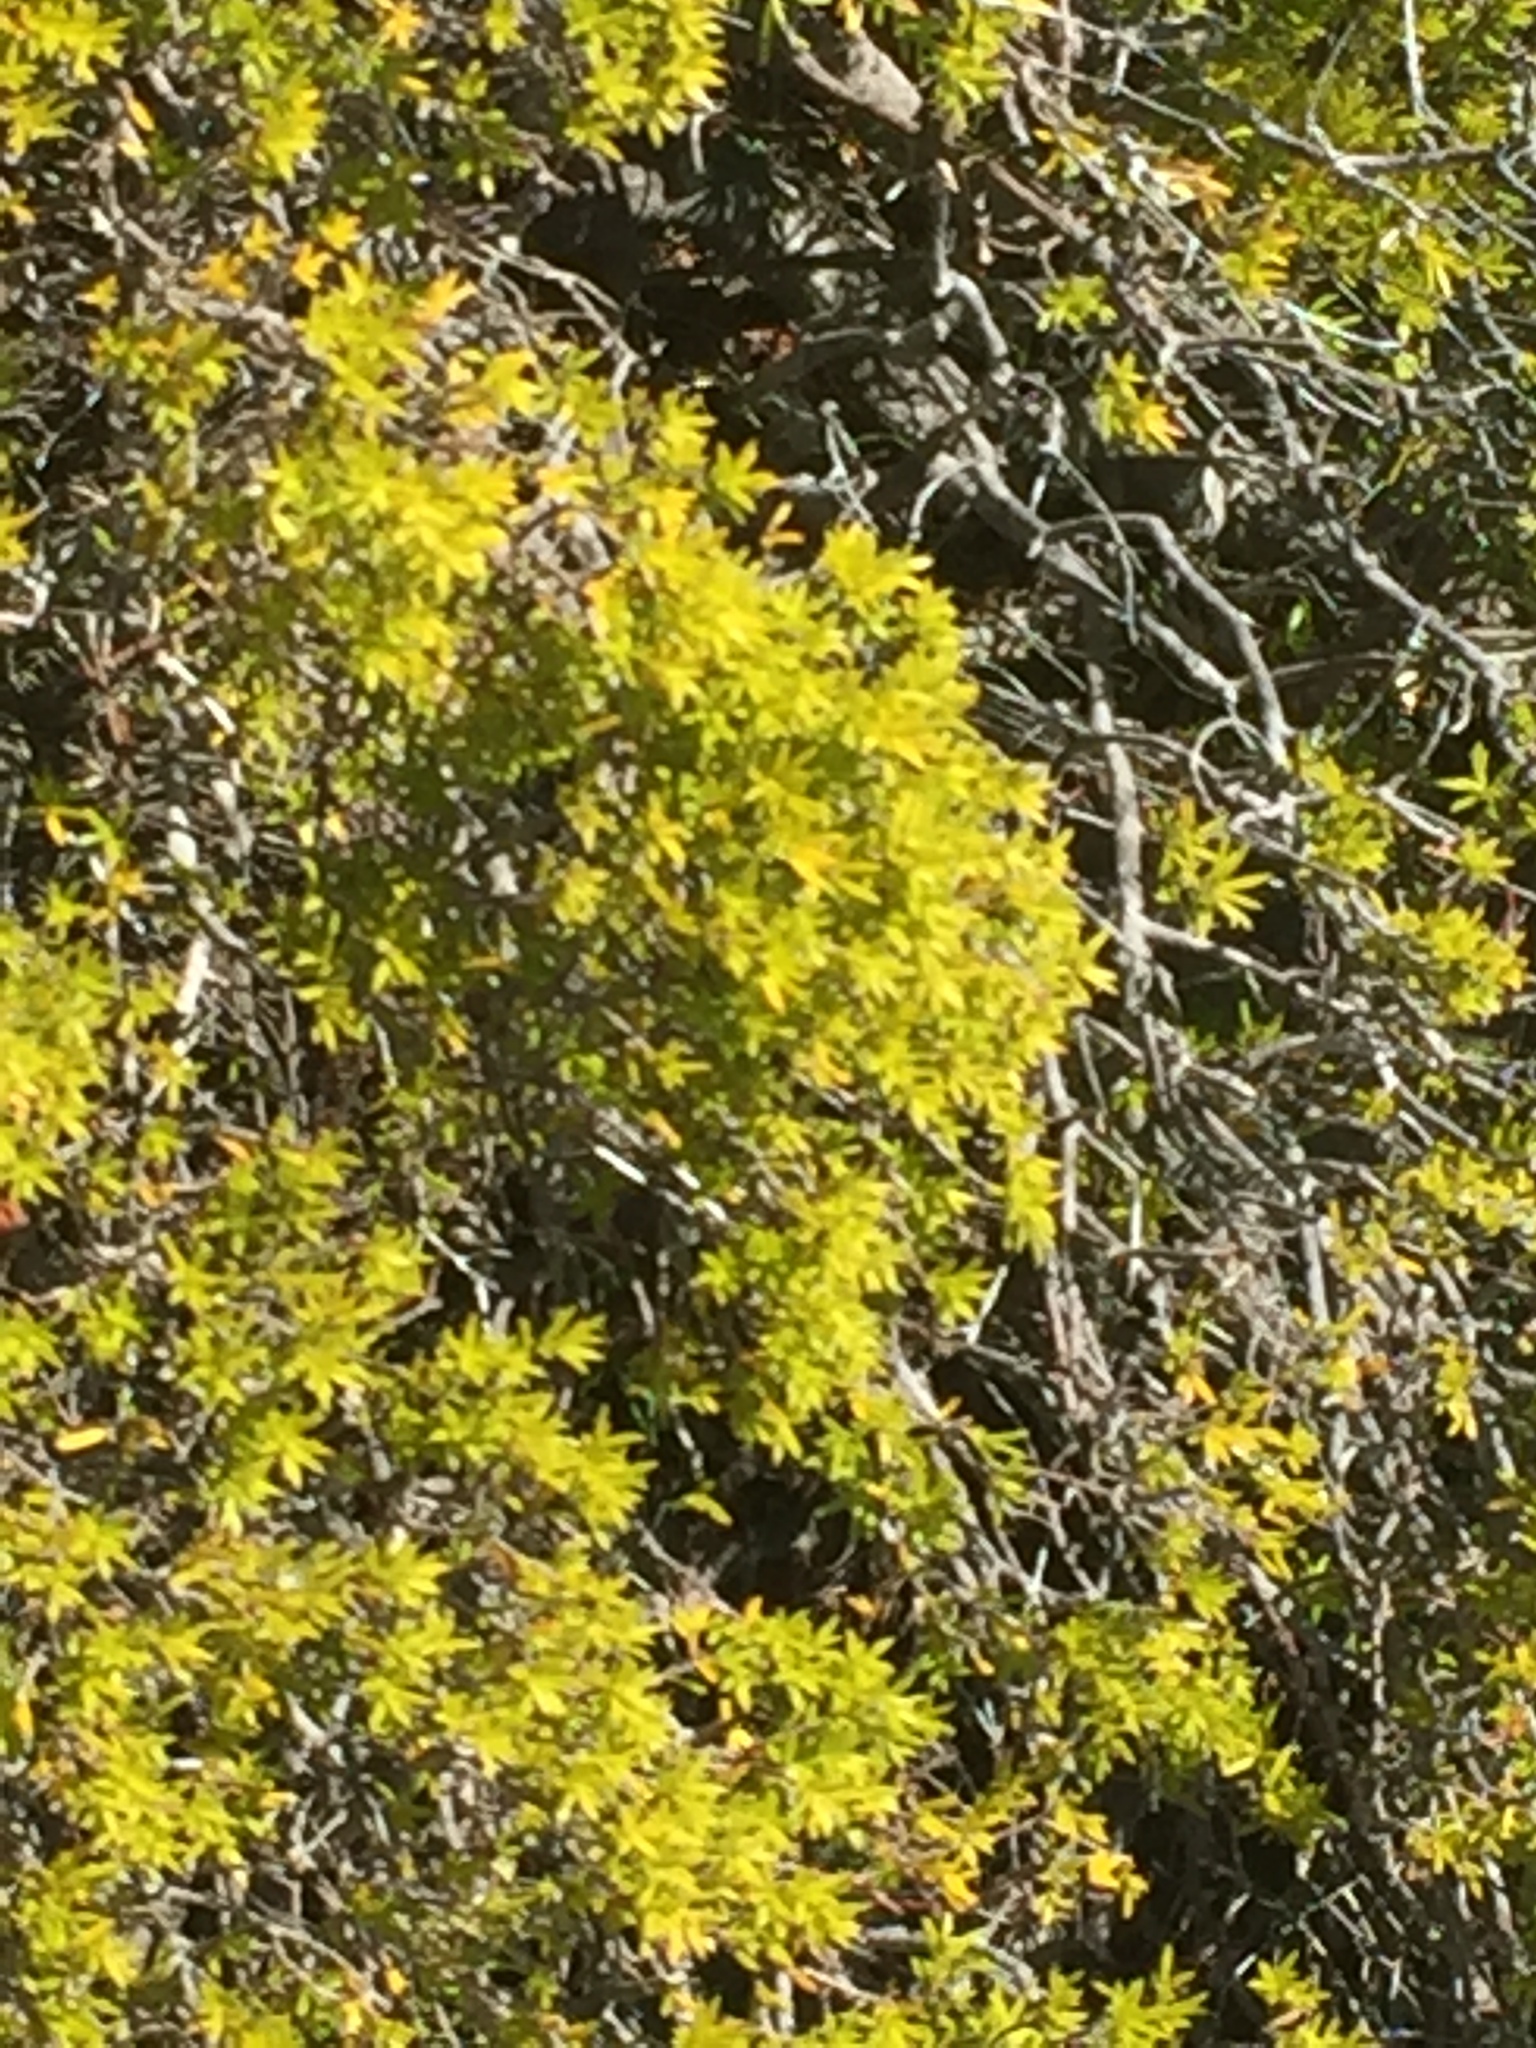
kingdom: Plantae
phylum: Tracheophyta
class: Magnoliopsida
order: Sapindales
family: Rutaceae
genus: Coleonema
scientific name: Coleonema album
